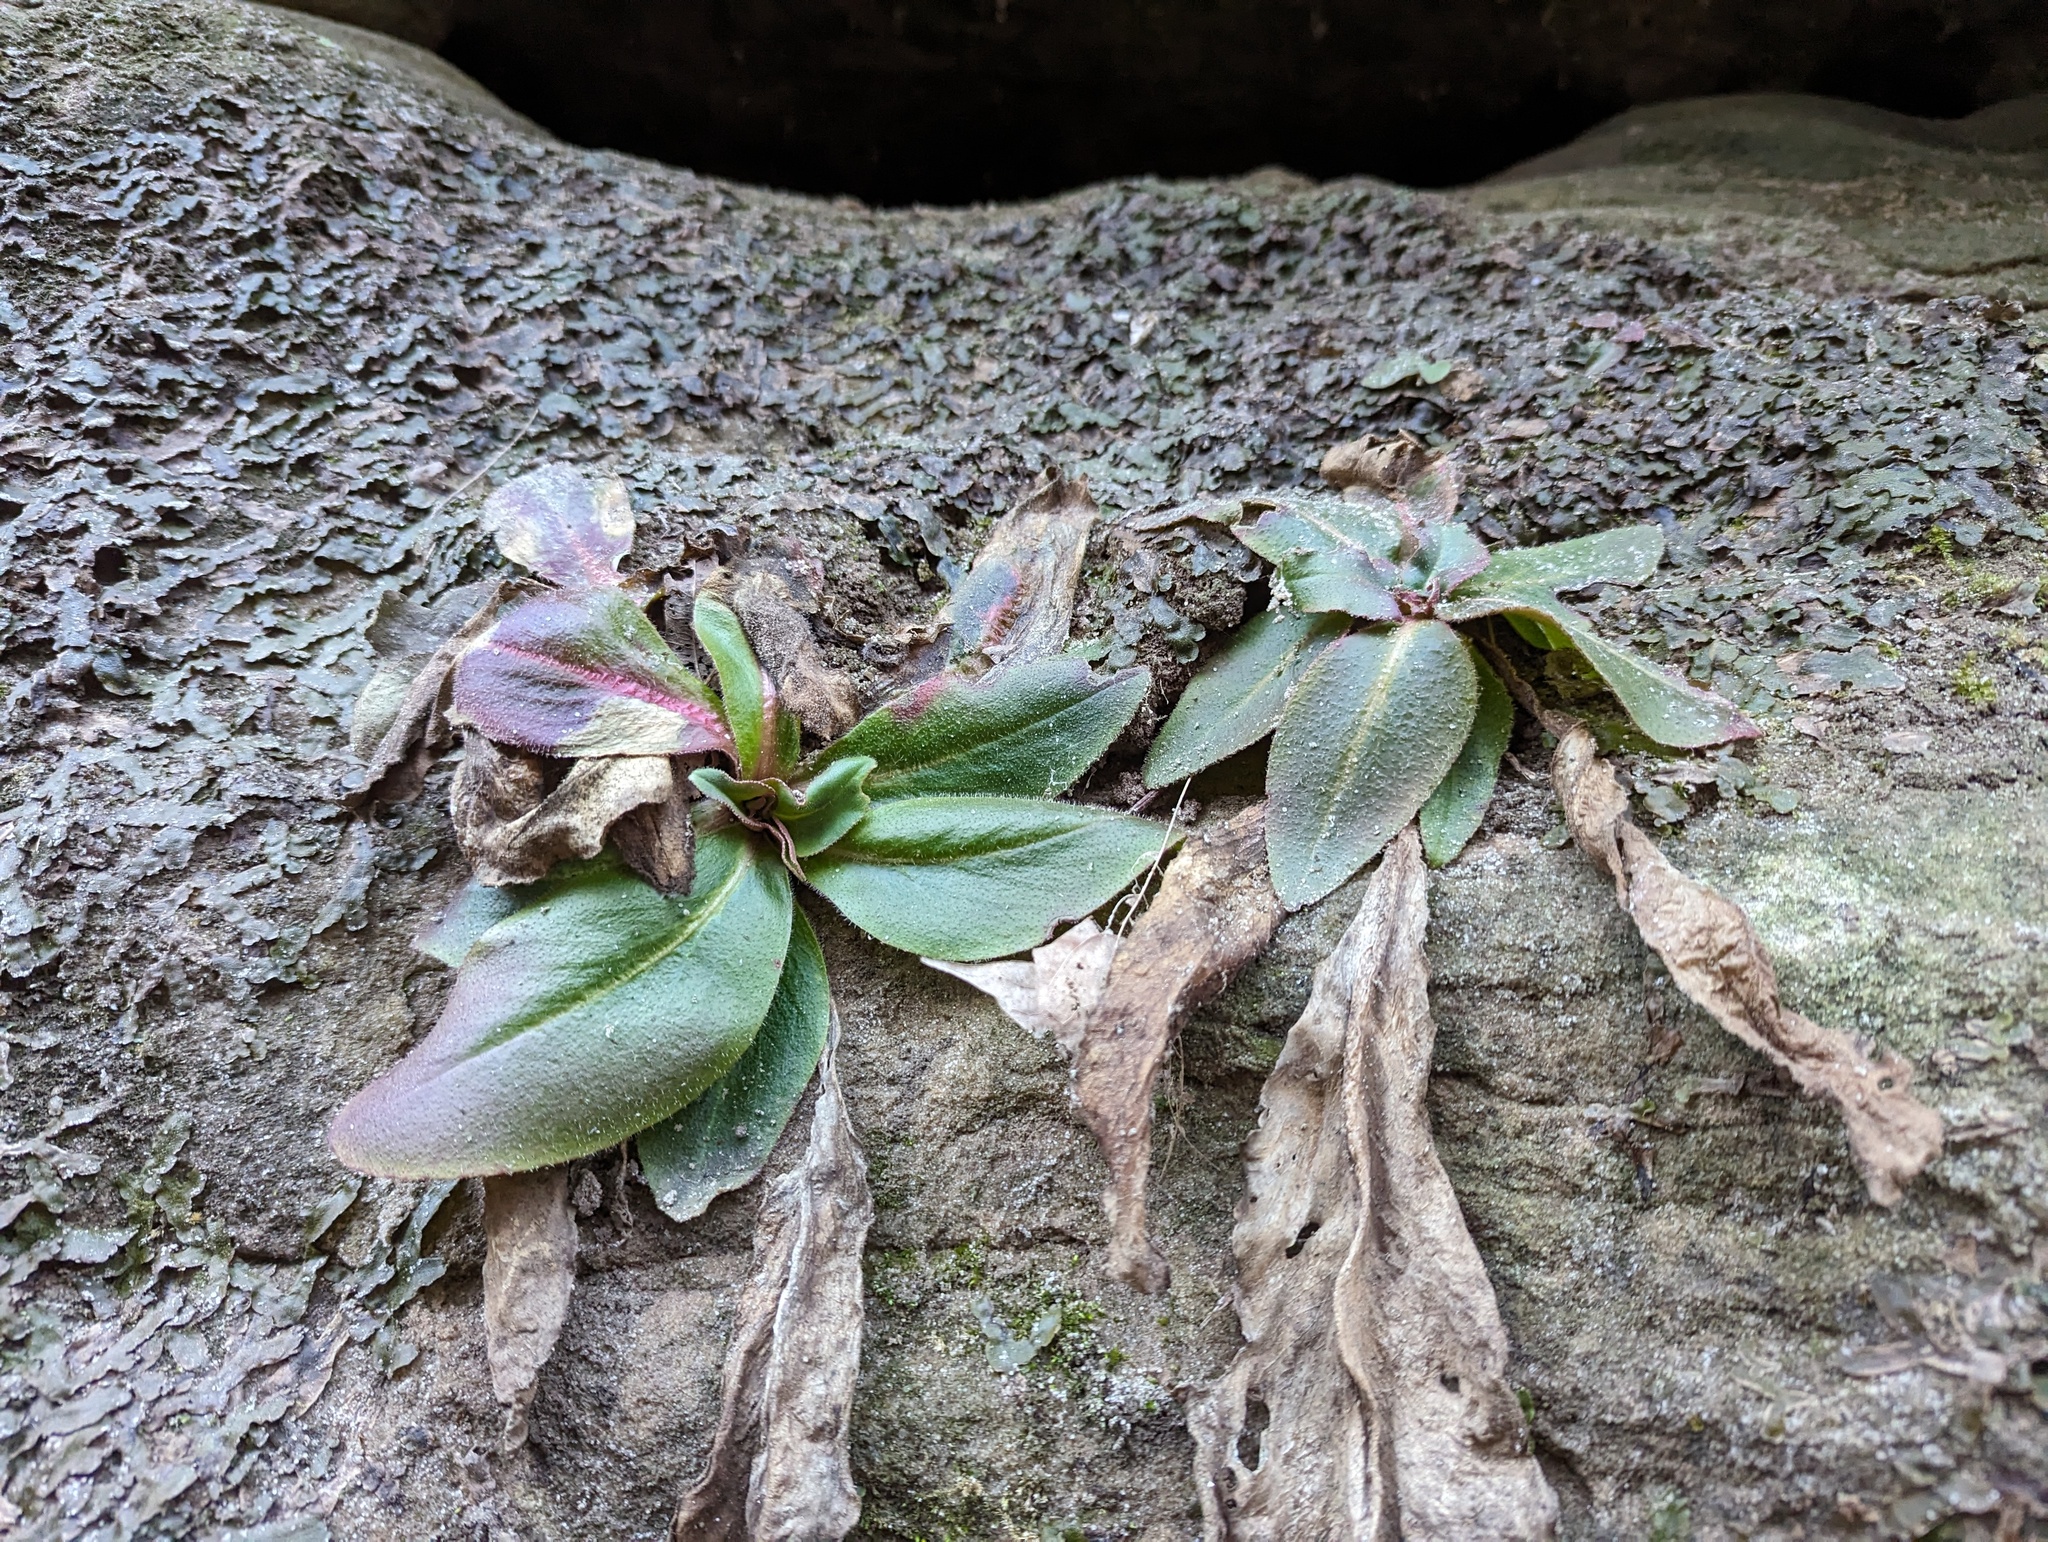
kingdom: Plantae
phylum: Tracheophyta
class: Magnoliopsida
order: Saxifragales
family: Saxifragaceae
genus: Micranthes
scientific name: Micranthes pensylvanica
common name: Marsh saxifrage
